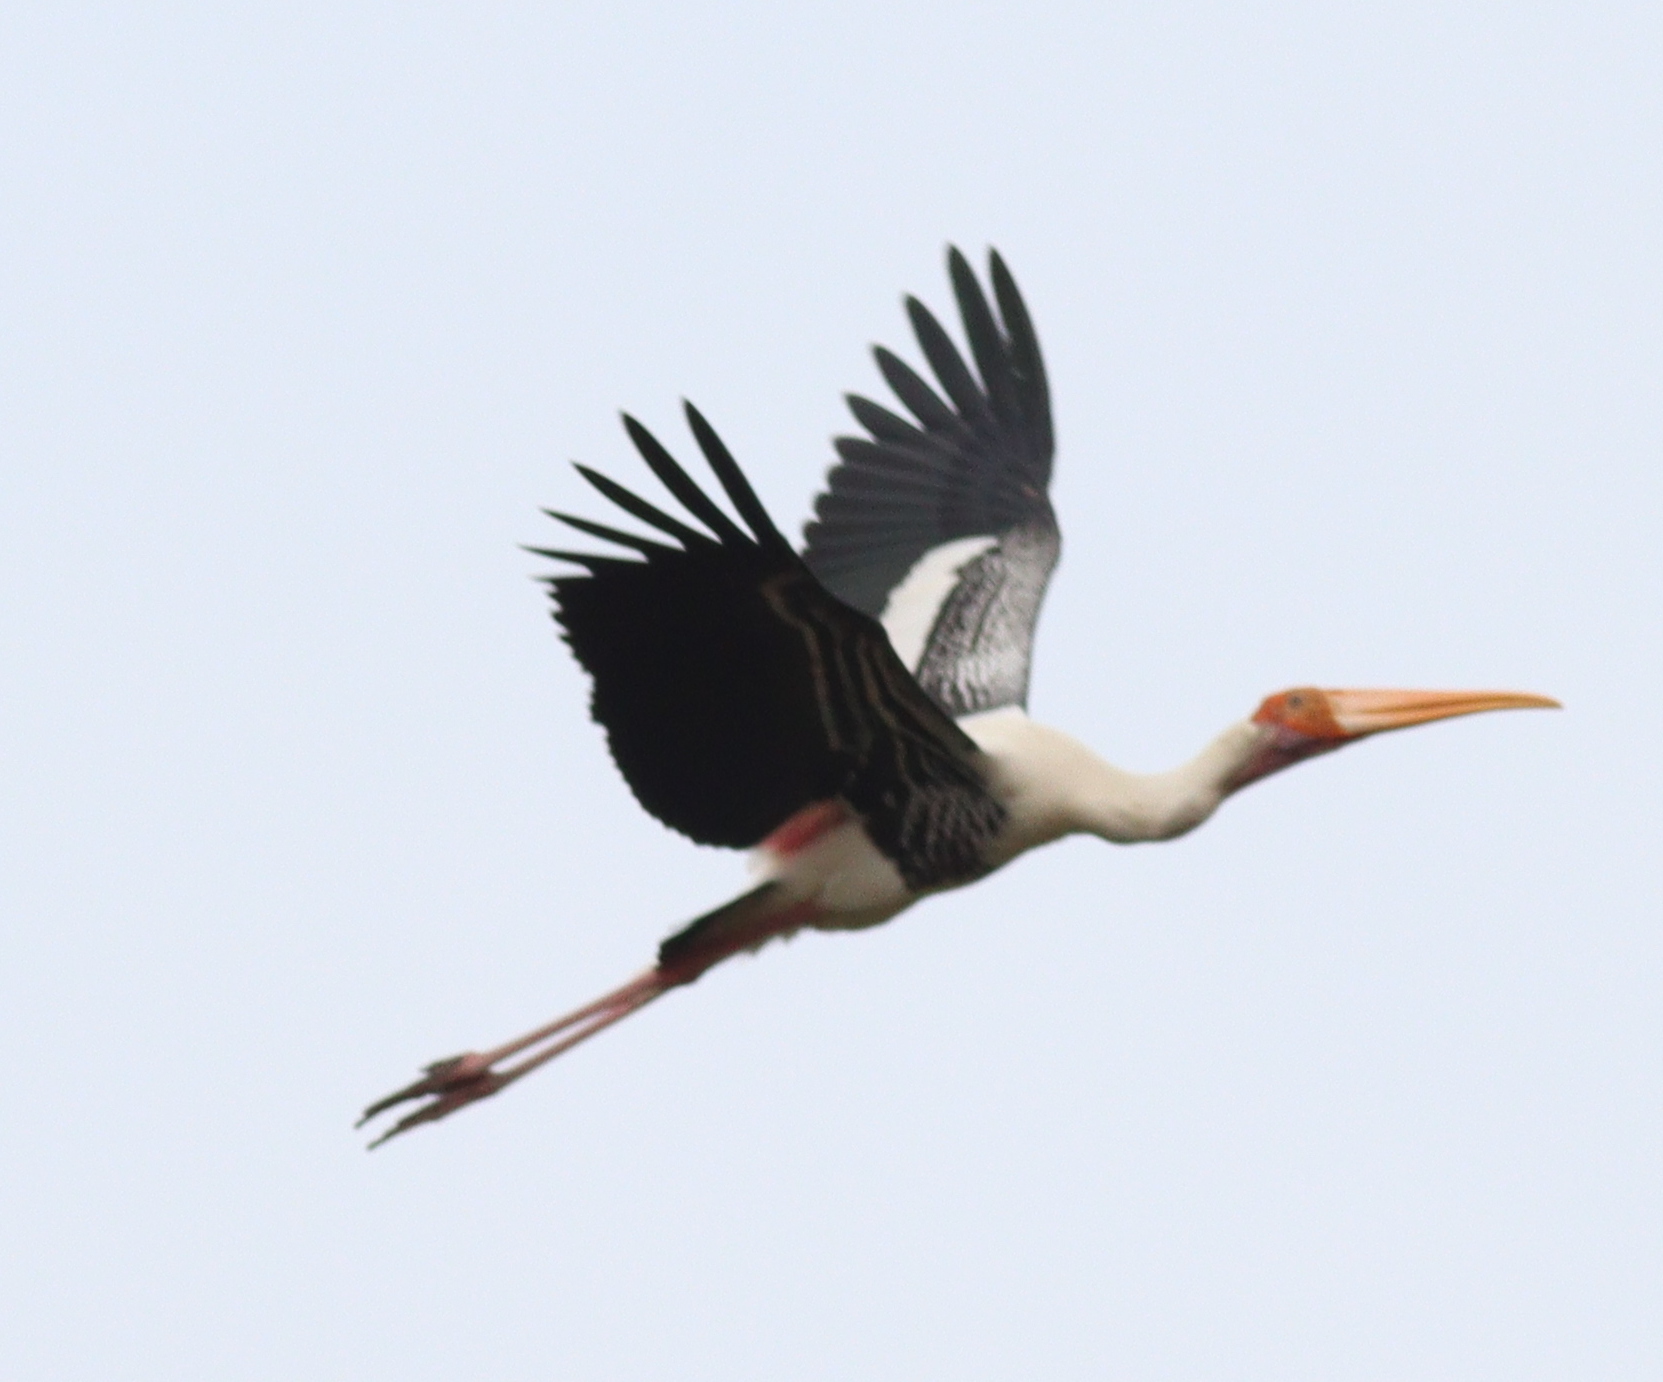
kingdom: Animalia
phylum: Chordata
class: Aves
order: Ciconiiformes
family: Ciconiidae
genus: Mycteria
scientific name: Mycteria leucocephala
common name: Painted stork
